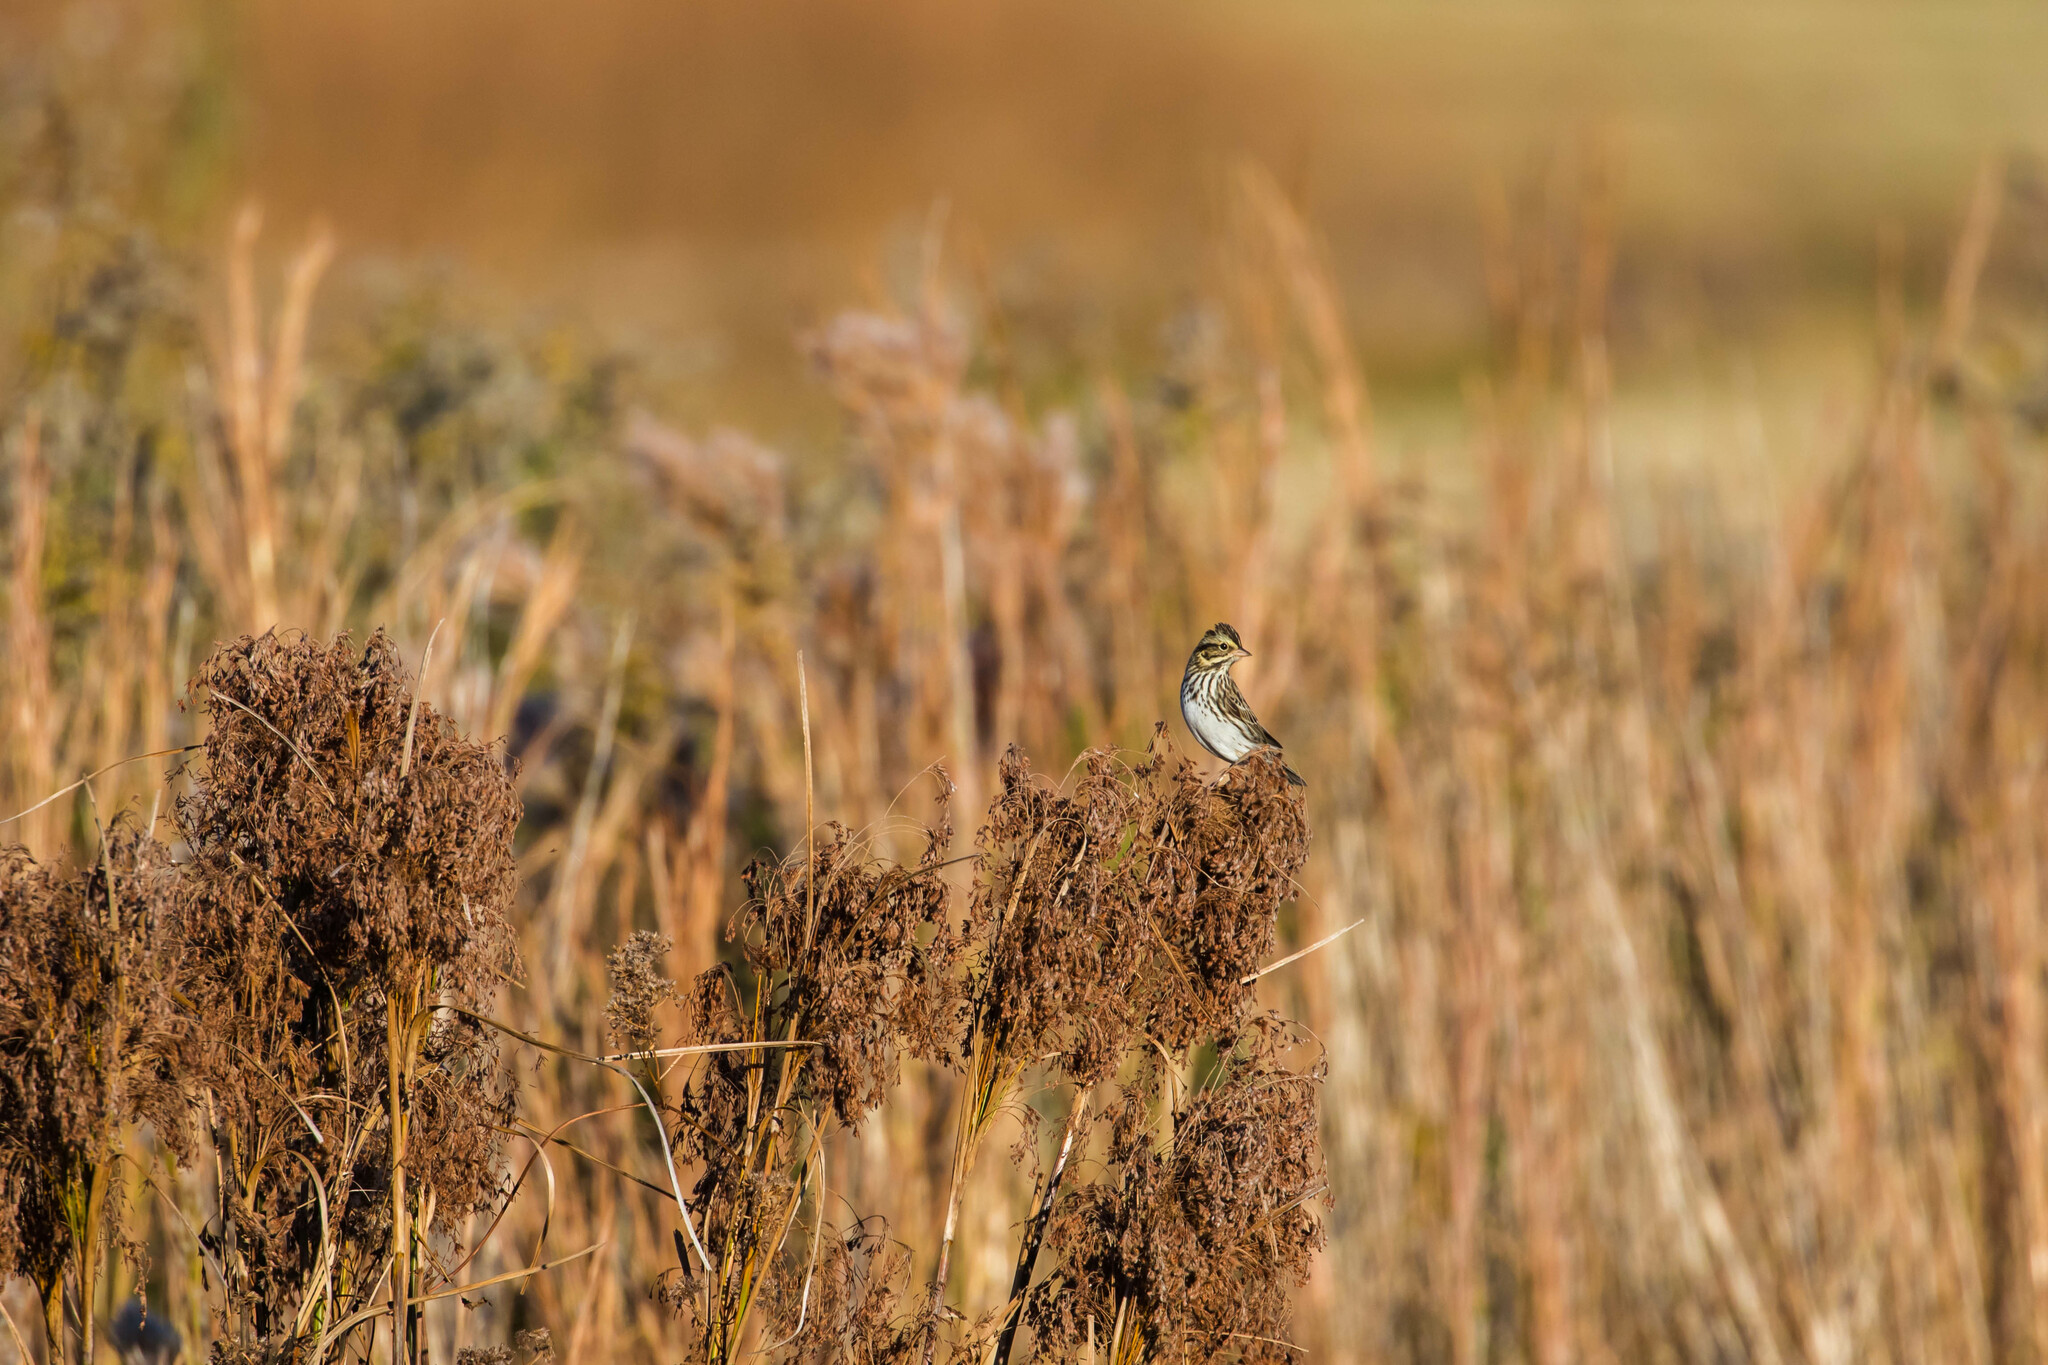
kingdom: Animalia
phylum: Chordata
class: Aves
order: Passeriformes
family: Passerellidae
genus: Passerculus
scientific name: Passerculus sandwichensis
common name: Savannah sparrow
